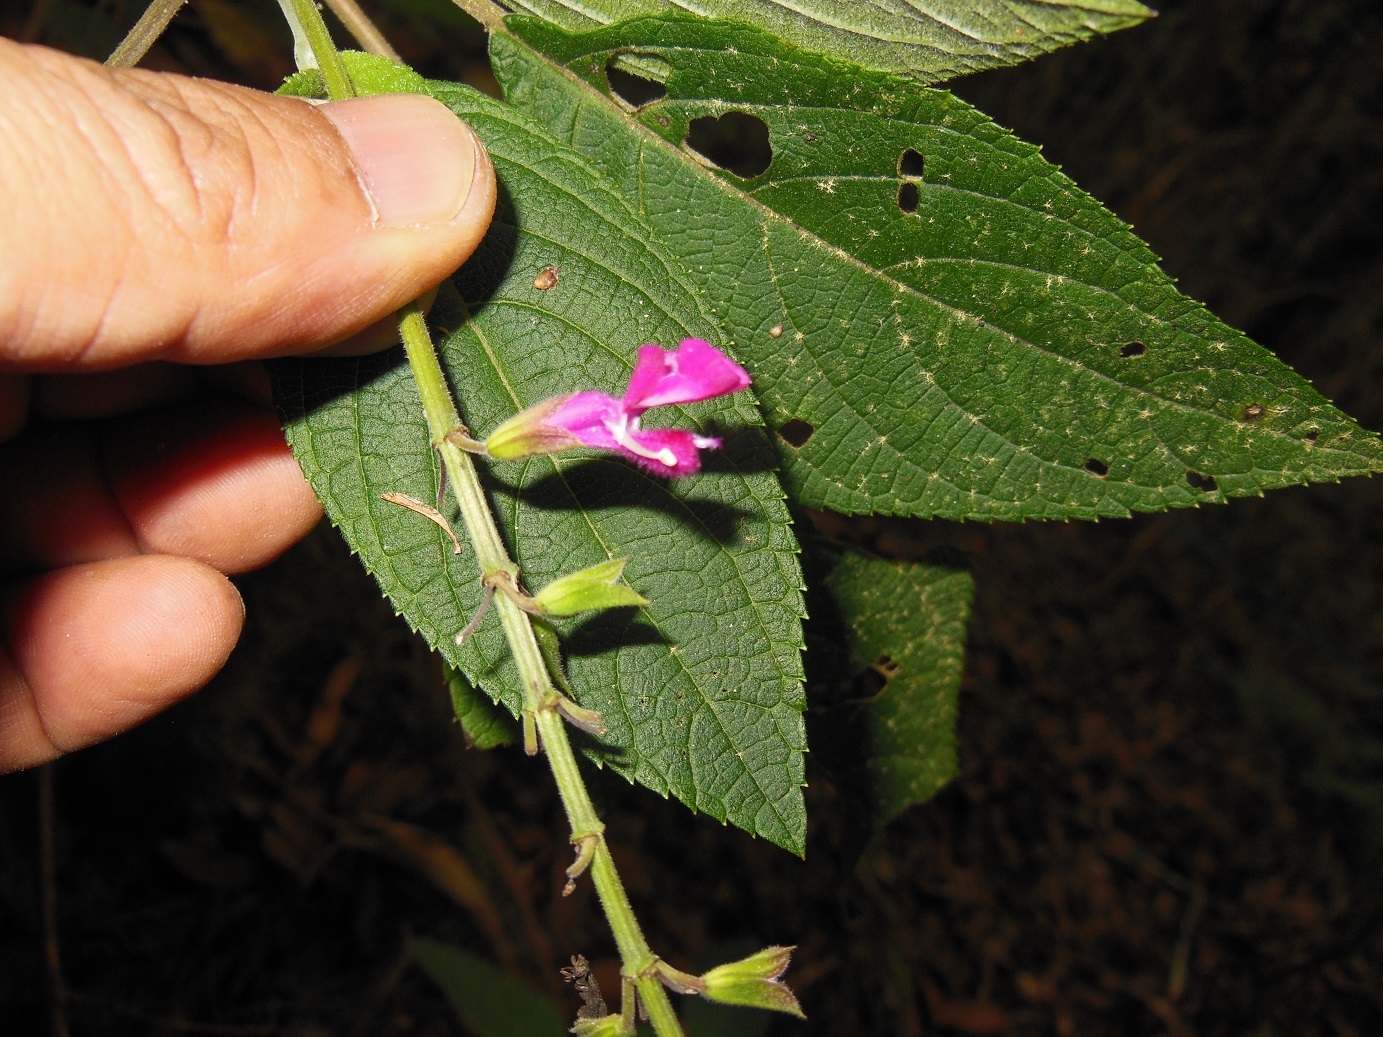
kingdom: Plantae
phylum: Tracheophyta
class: Magnoliopsida
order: Lamiales
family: Lamiaceae
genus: Salvia
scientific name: Salvia chiapensis
